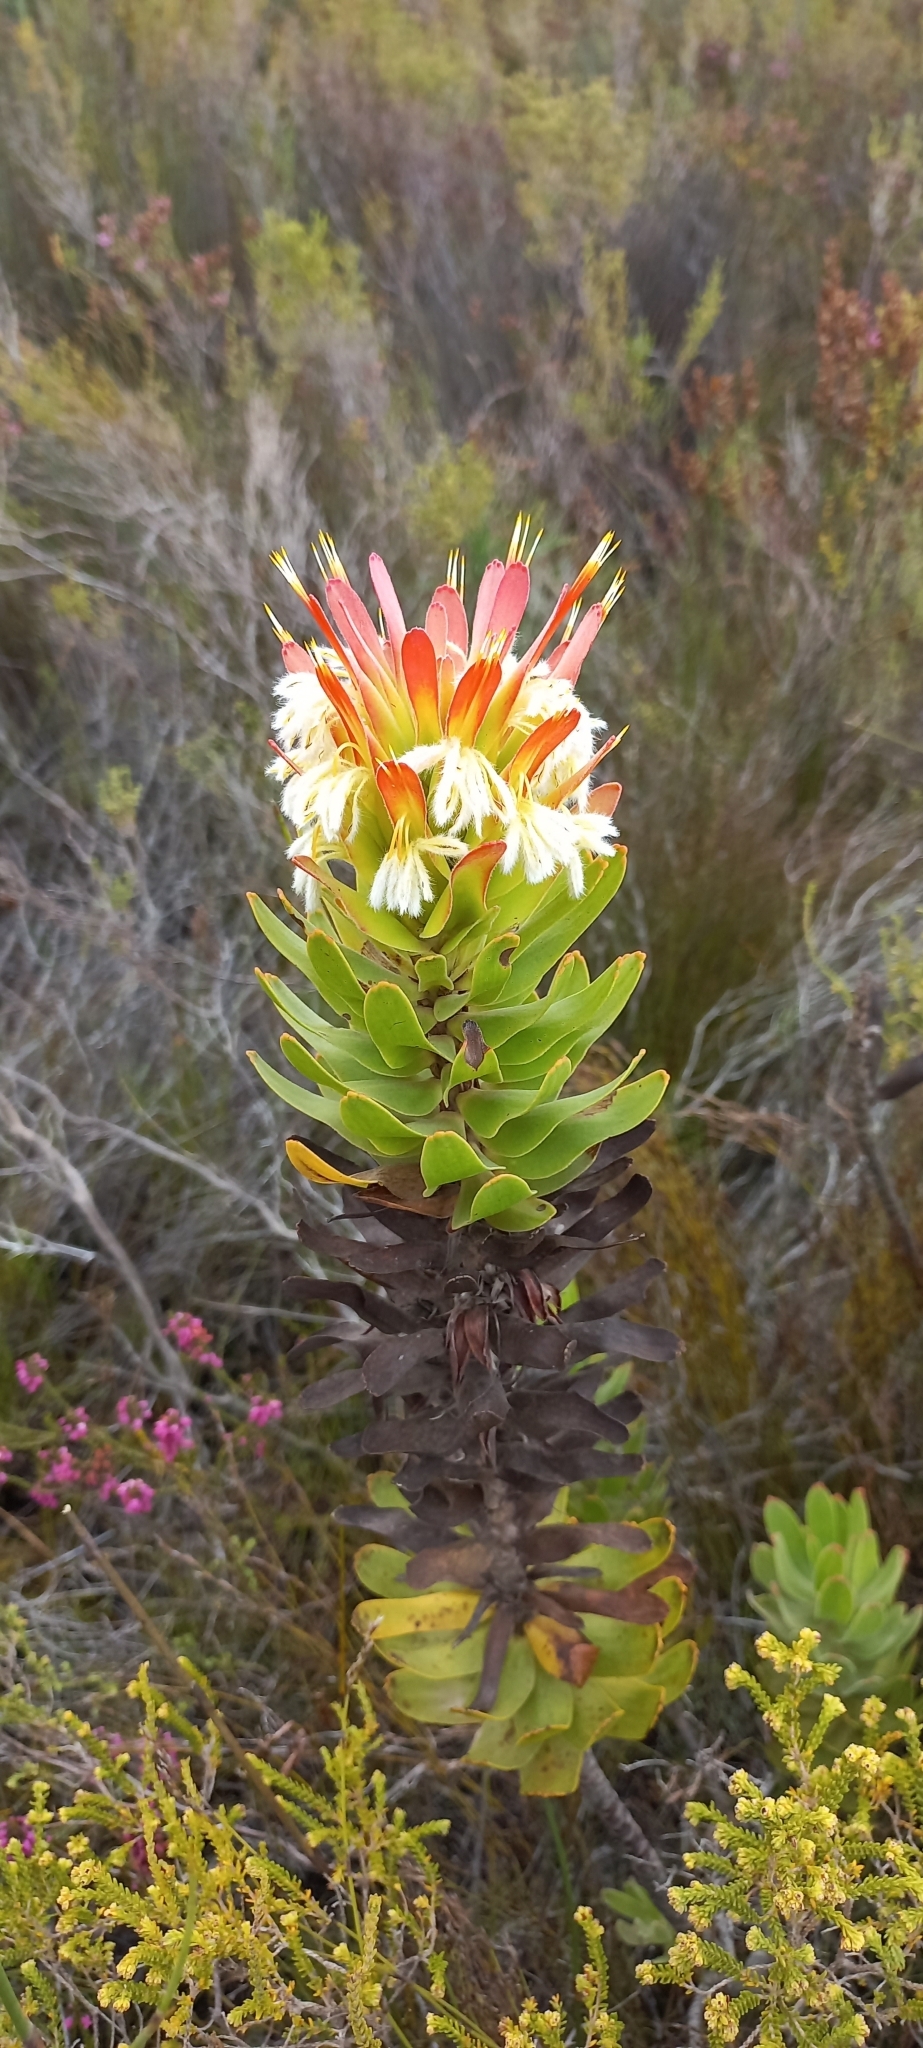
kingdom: Plantae
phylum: Tracheophyta
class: Magnoliopsida
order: Proteales
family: Proteaceae
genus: Mimetes
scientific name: Mimetes cucullatus
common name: Common pagoda
